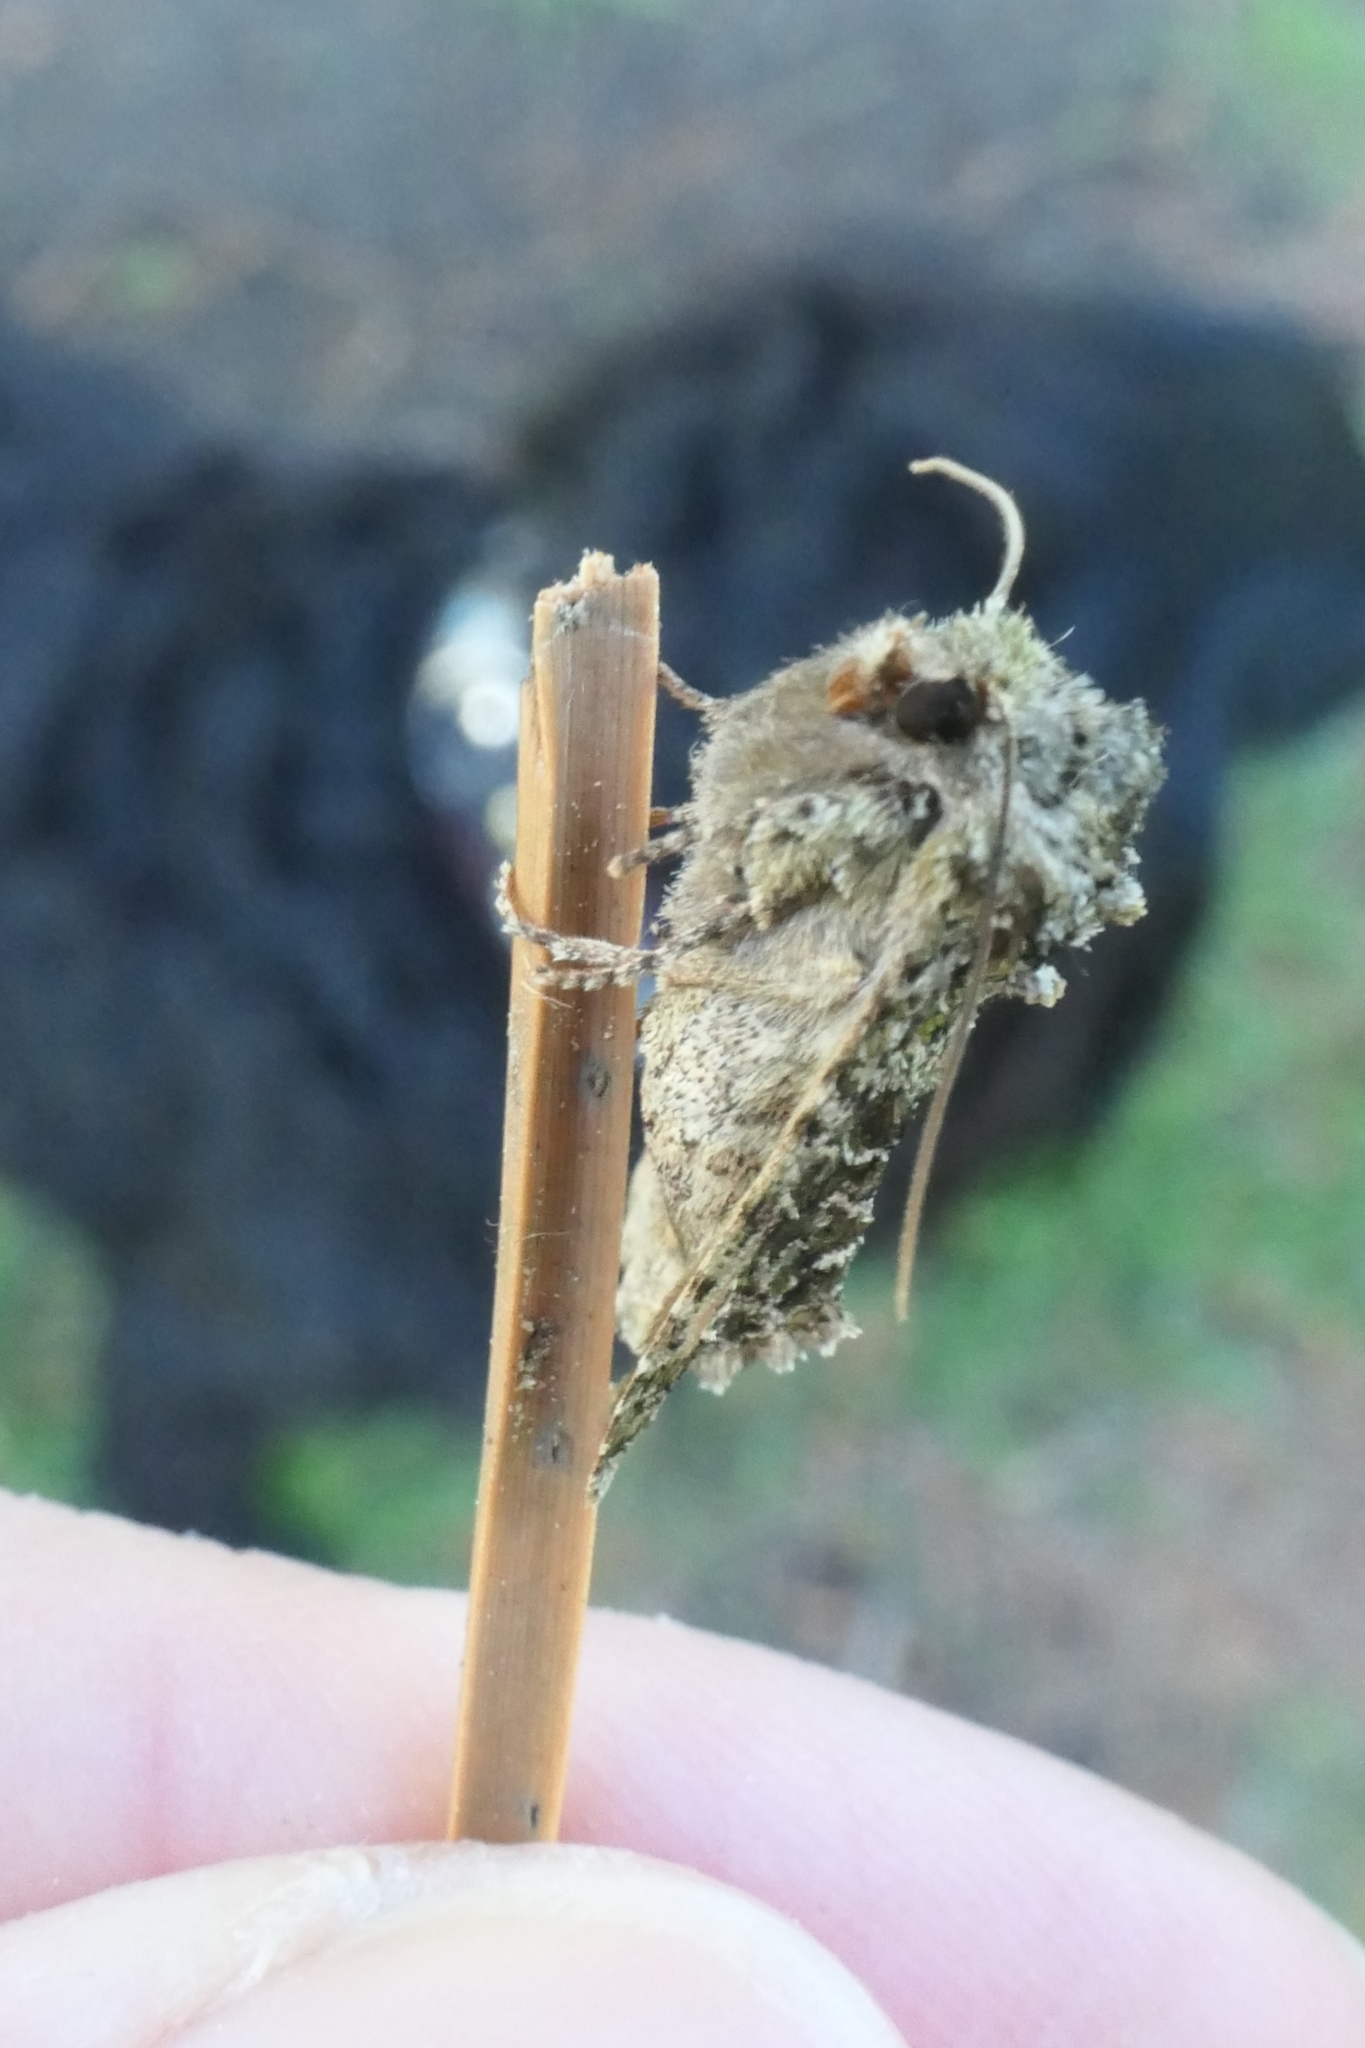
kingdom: Animalia
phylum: Arthropoda
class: Insecta
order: Lepidoptera
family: Noctuidae
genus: Ichneutica
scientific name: Ichneutica
